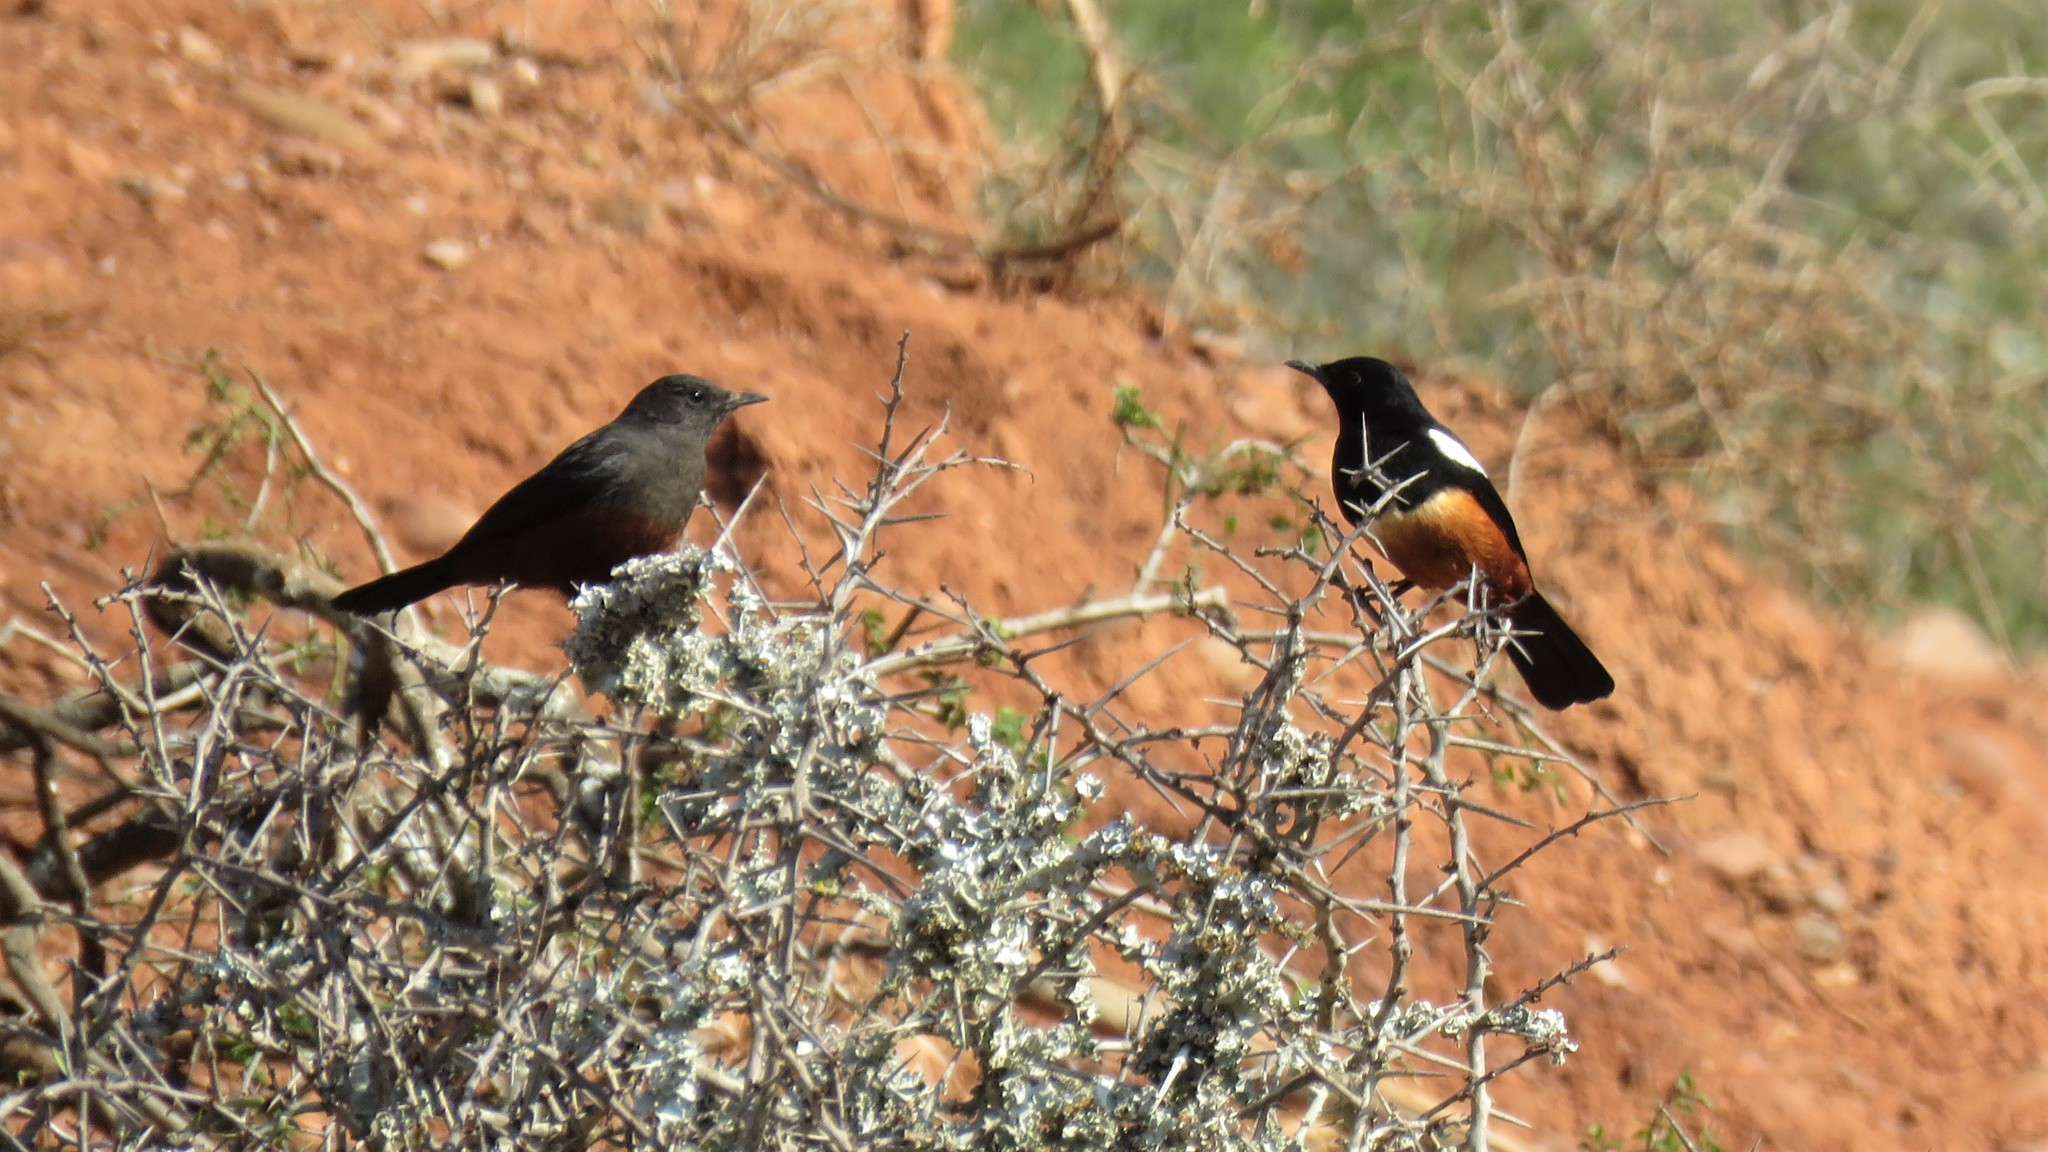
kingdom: Animalia
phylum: Chordata
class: Aves
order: Passeriformes
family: Muscicapidae
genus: Thamnolaea
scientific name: Thamnolaea cinnamomeiventris
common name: Mocking cliff chat
